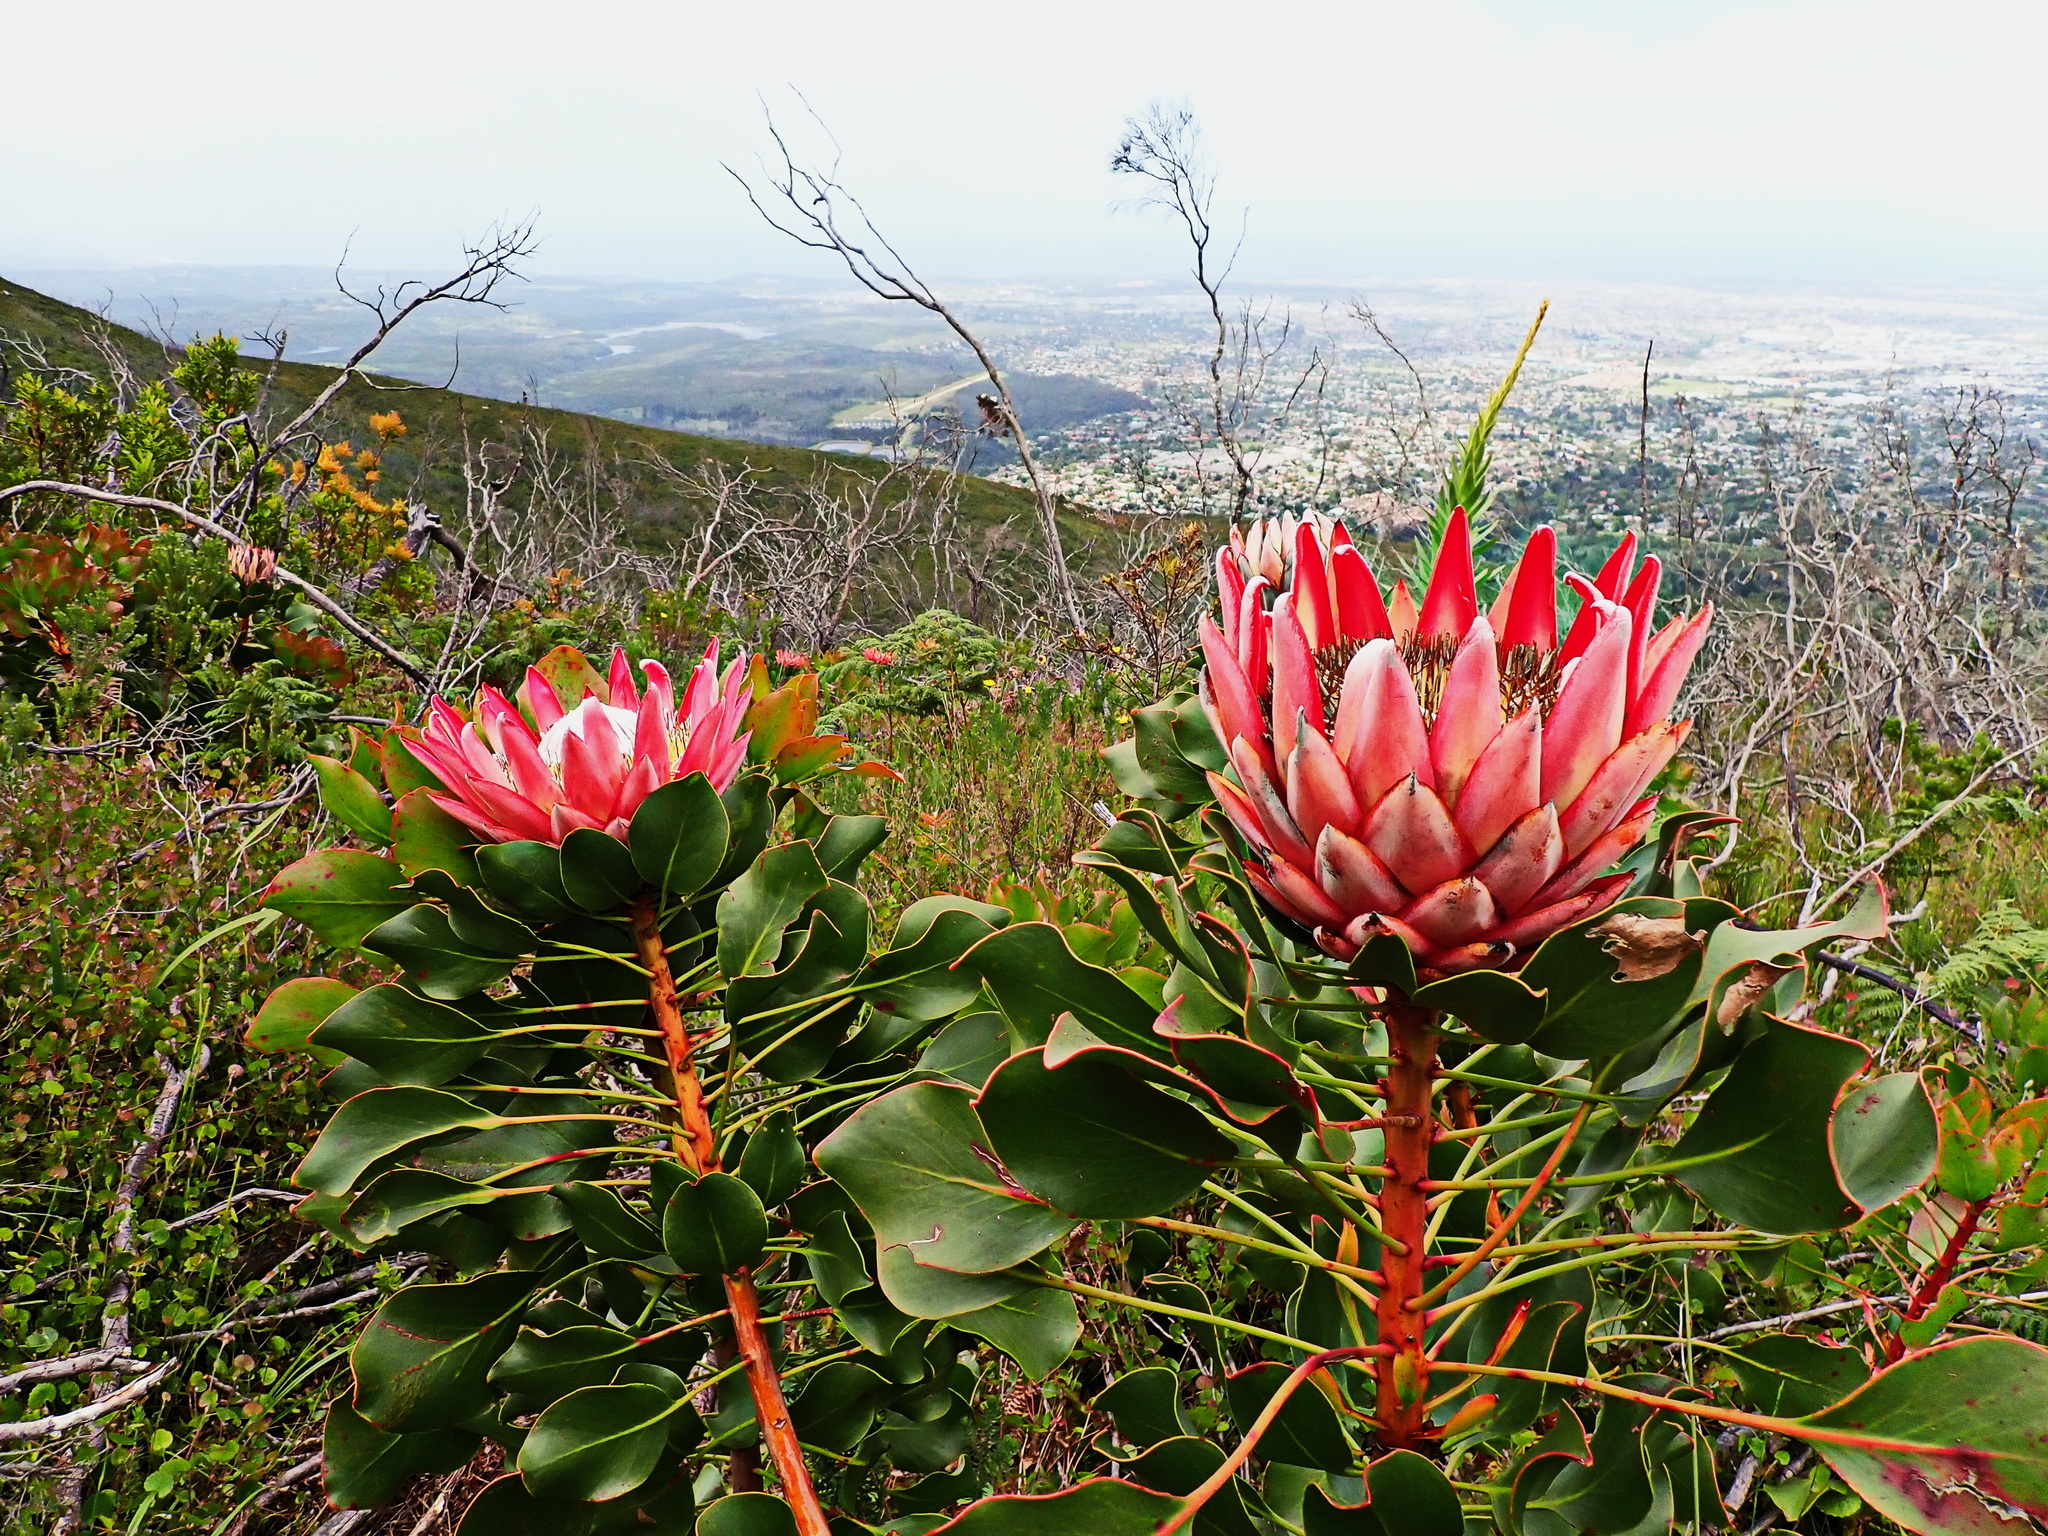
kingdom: Plantae
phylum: Tracheophyta
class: Magnoliopsida
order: Proteales
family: Proteaceae
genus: Protea
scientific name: Protea cynaroides
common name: King protea
